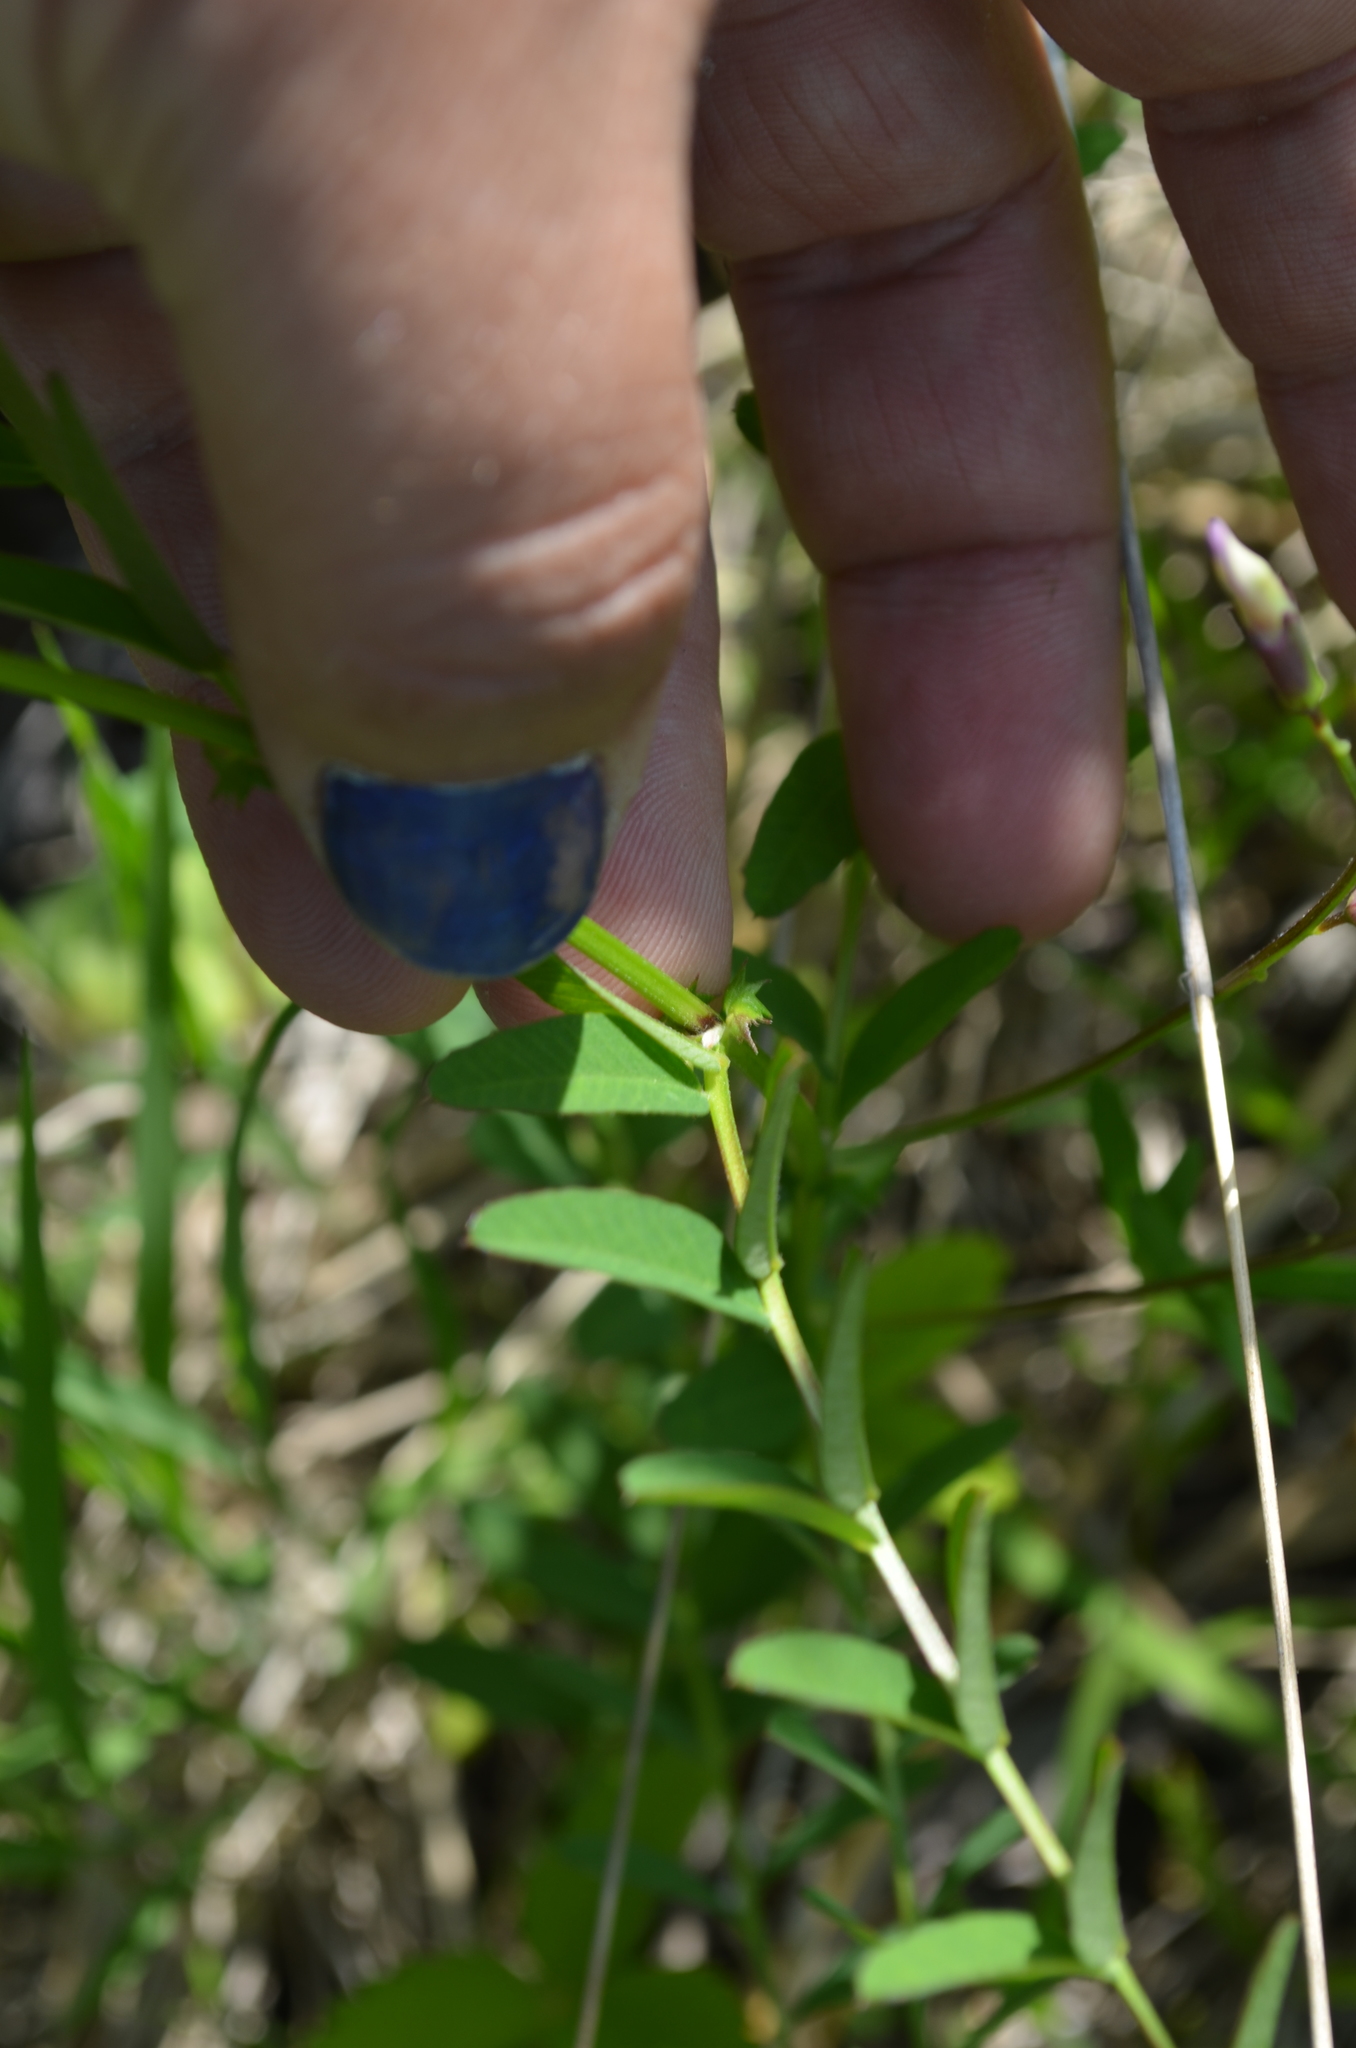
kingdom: Plantae
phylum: Tracheophyta
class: Magnoliopsida
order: Fabales
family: Fabaceae
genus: Vicia
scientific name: Vicia americana
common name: American vetch
